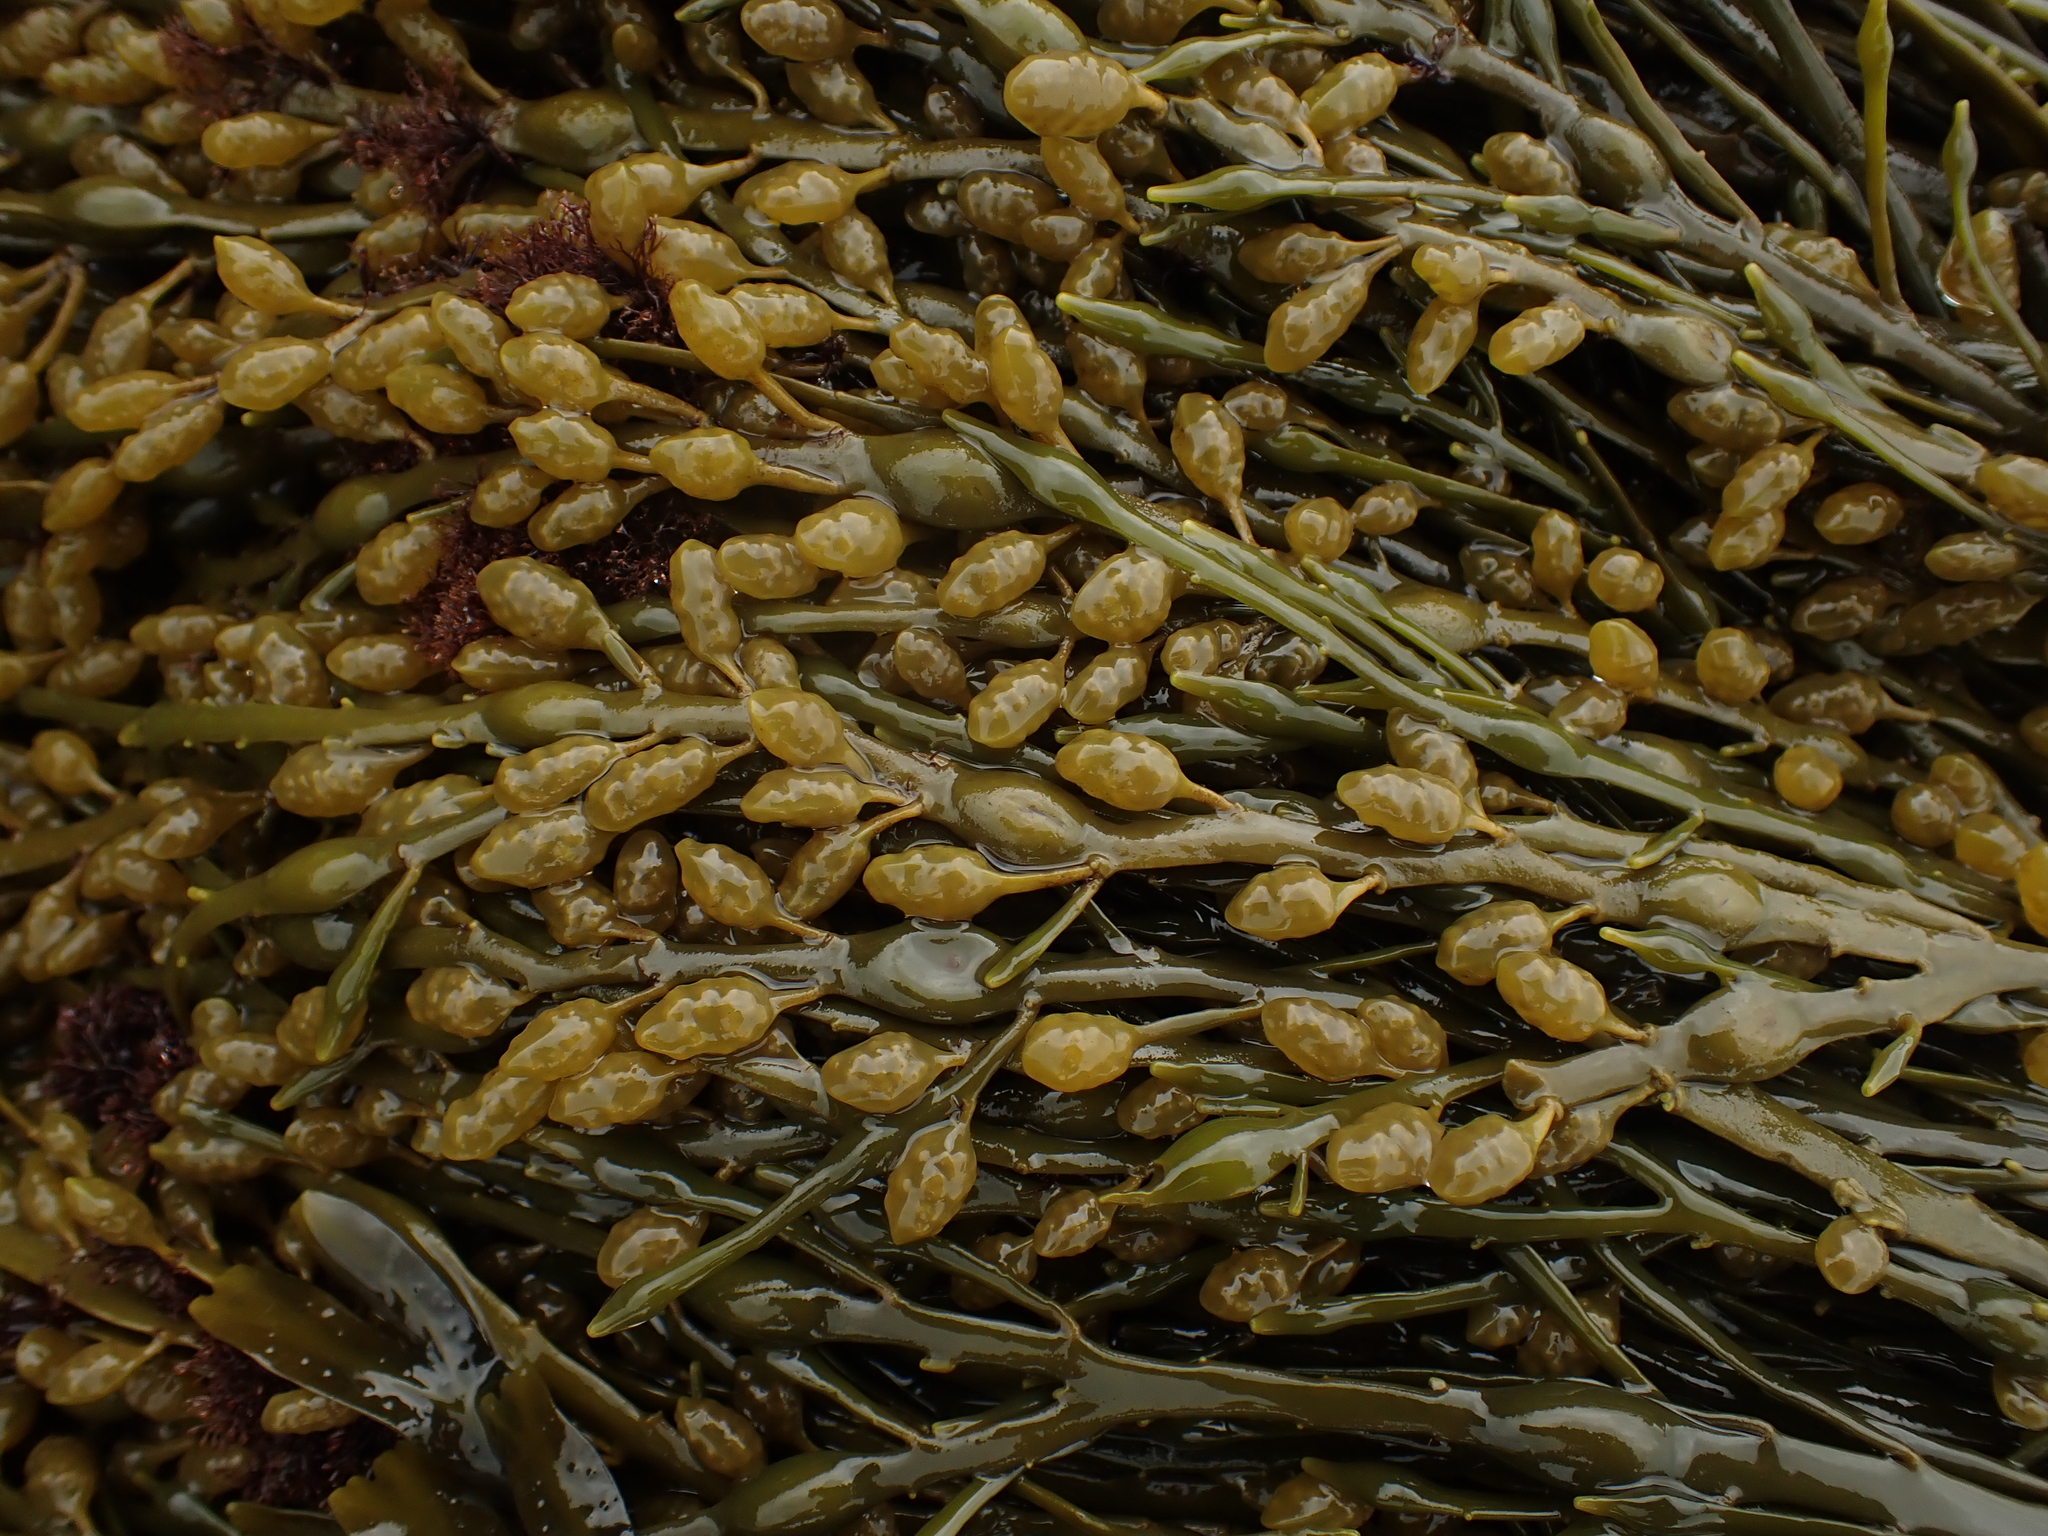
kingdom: Chromista
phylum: Ochrophyta
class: Phaeophyceae
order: Fucales
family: Fucaceae
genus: Ascophyllum
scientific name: Ascophyllum nodosum
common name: Knotted wrack
